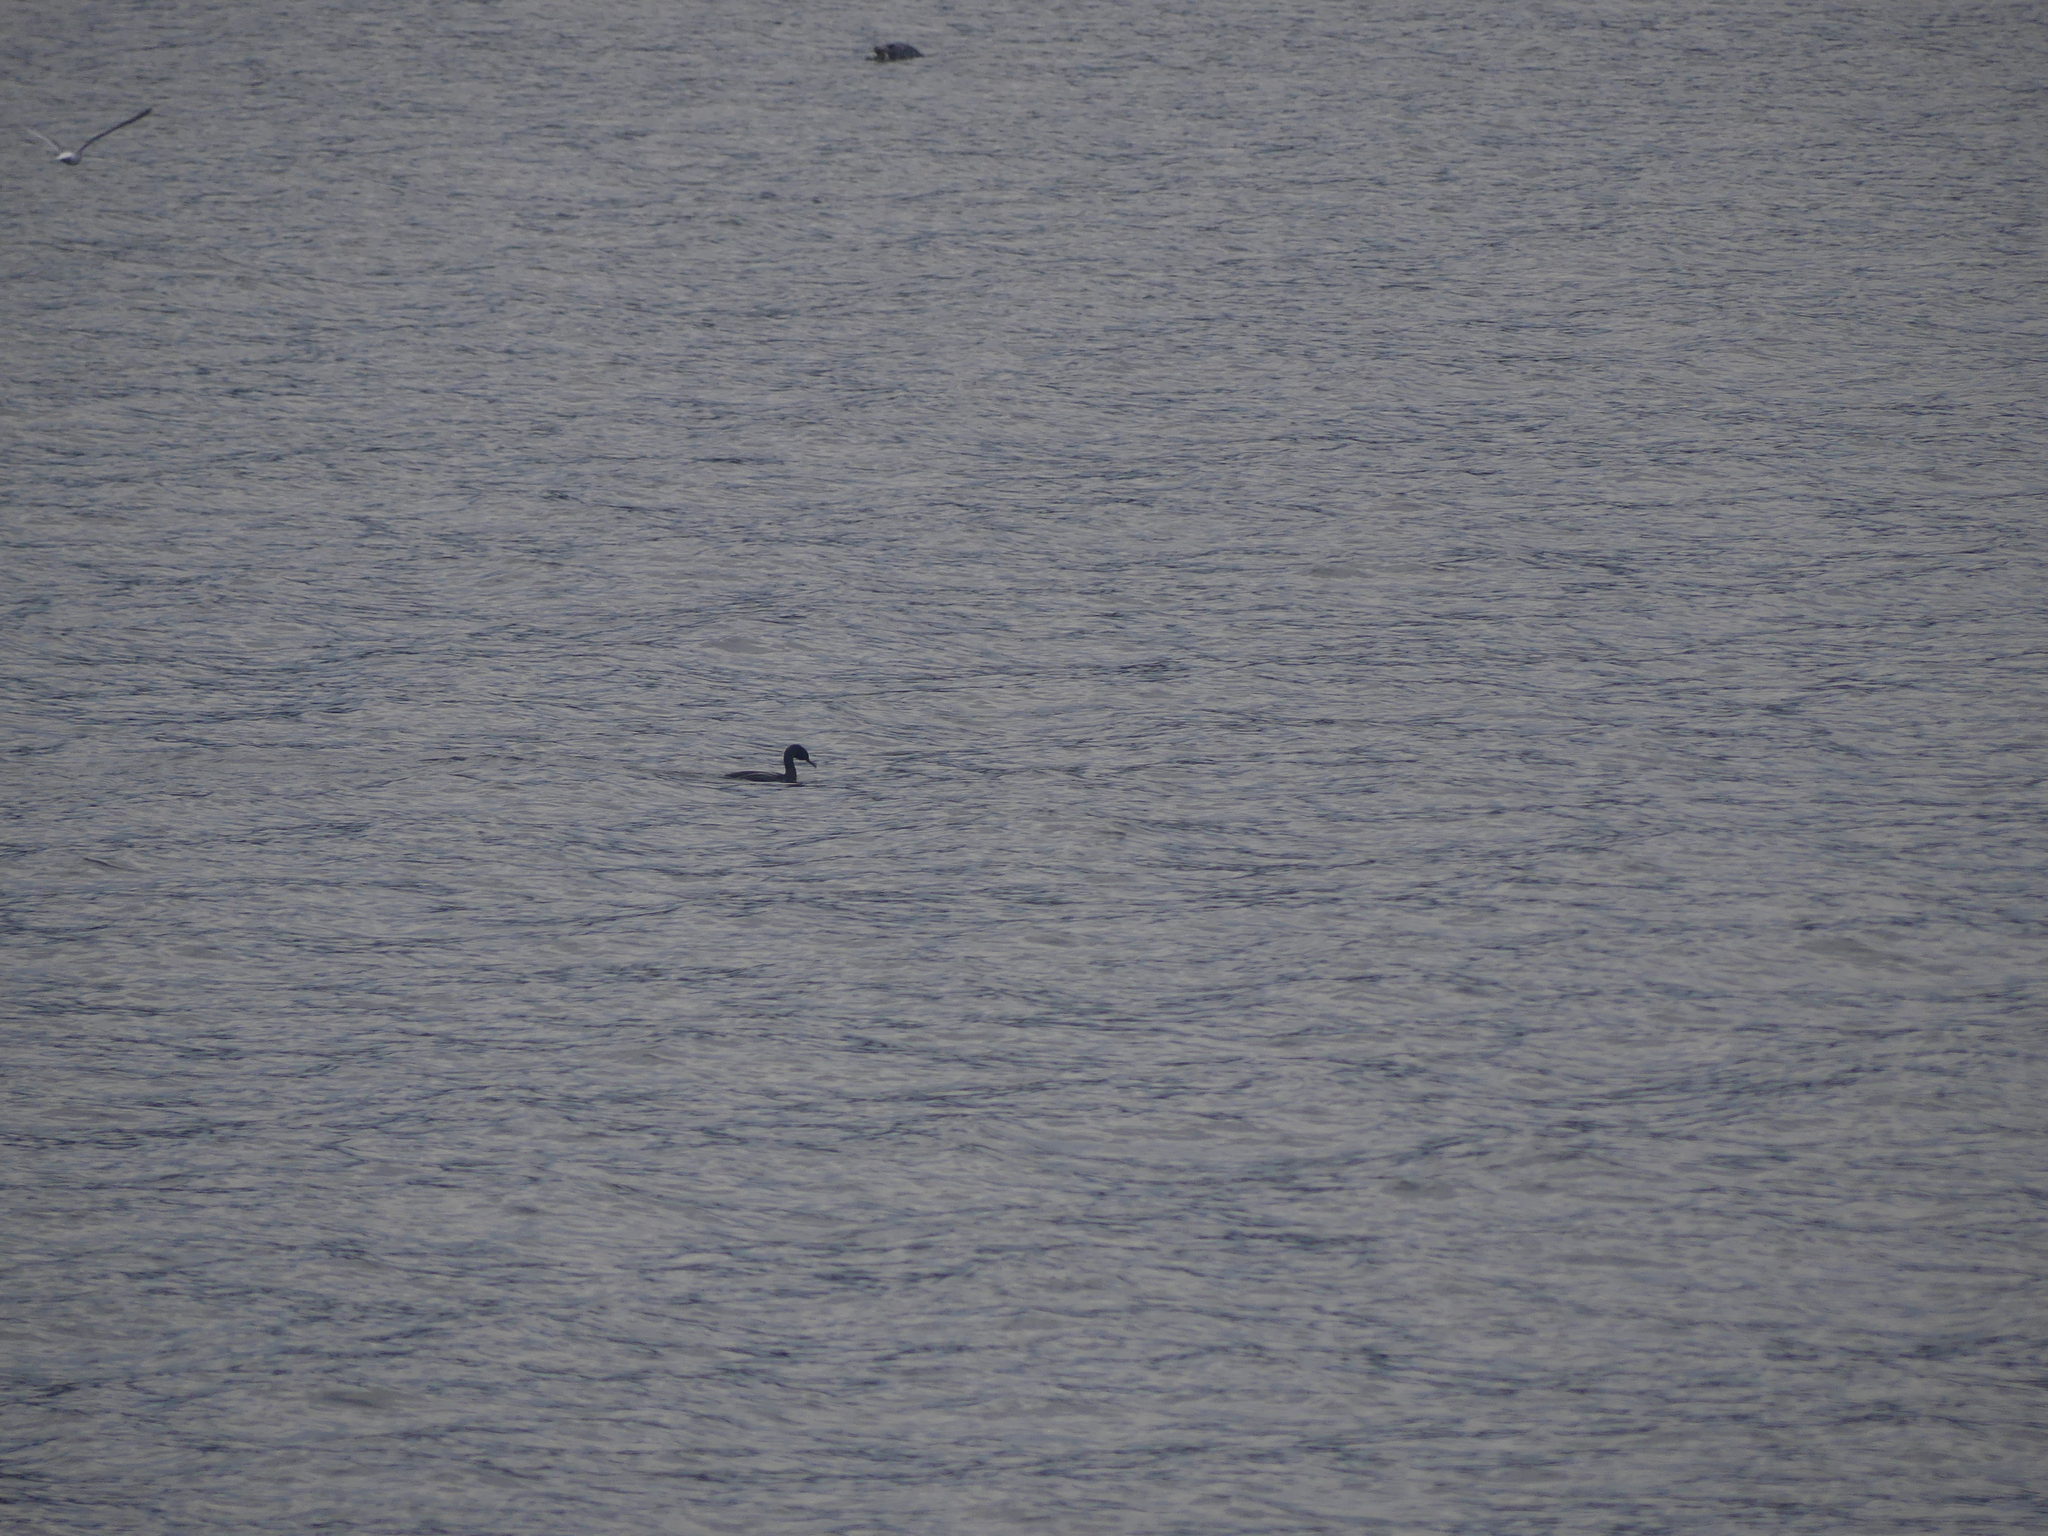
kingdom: Animalia
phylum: Chordata
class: Aves
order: Suliformes
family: Phalacrocoracidae
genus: Phalacrocorax
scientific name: Phalacrocorax pelagicus
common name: Pelagic cormorant
